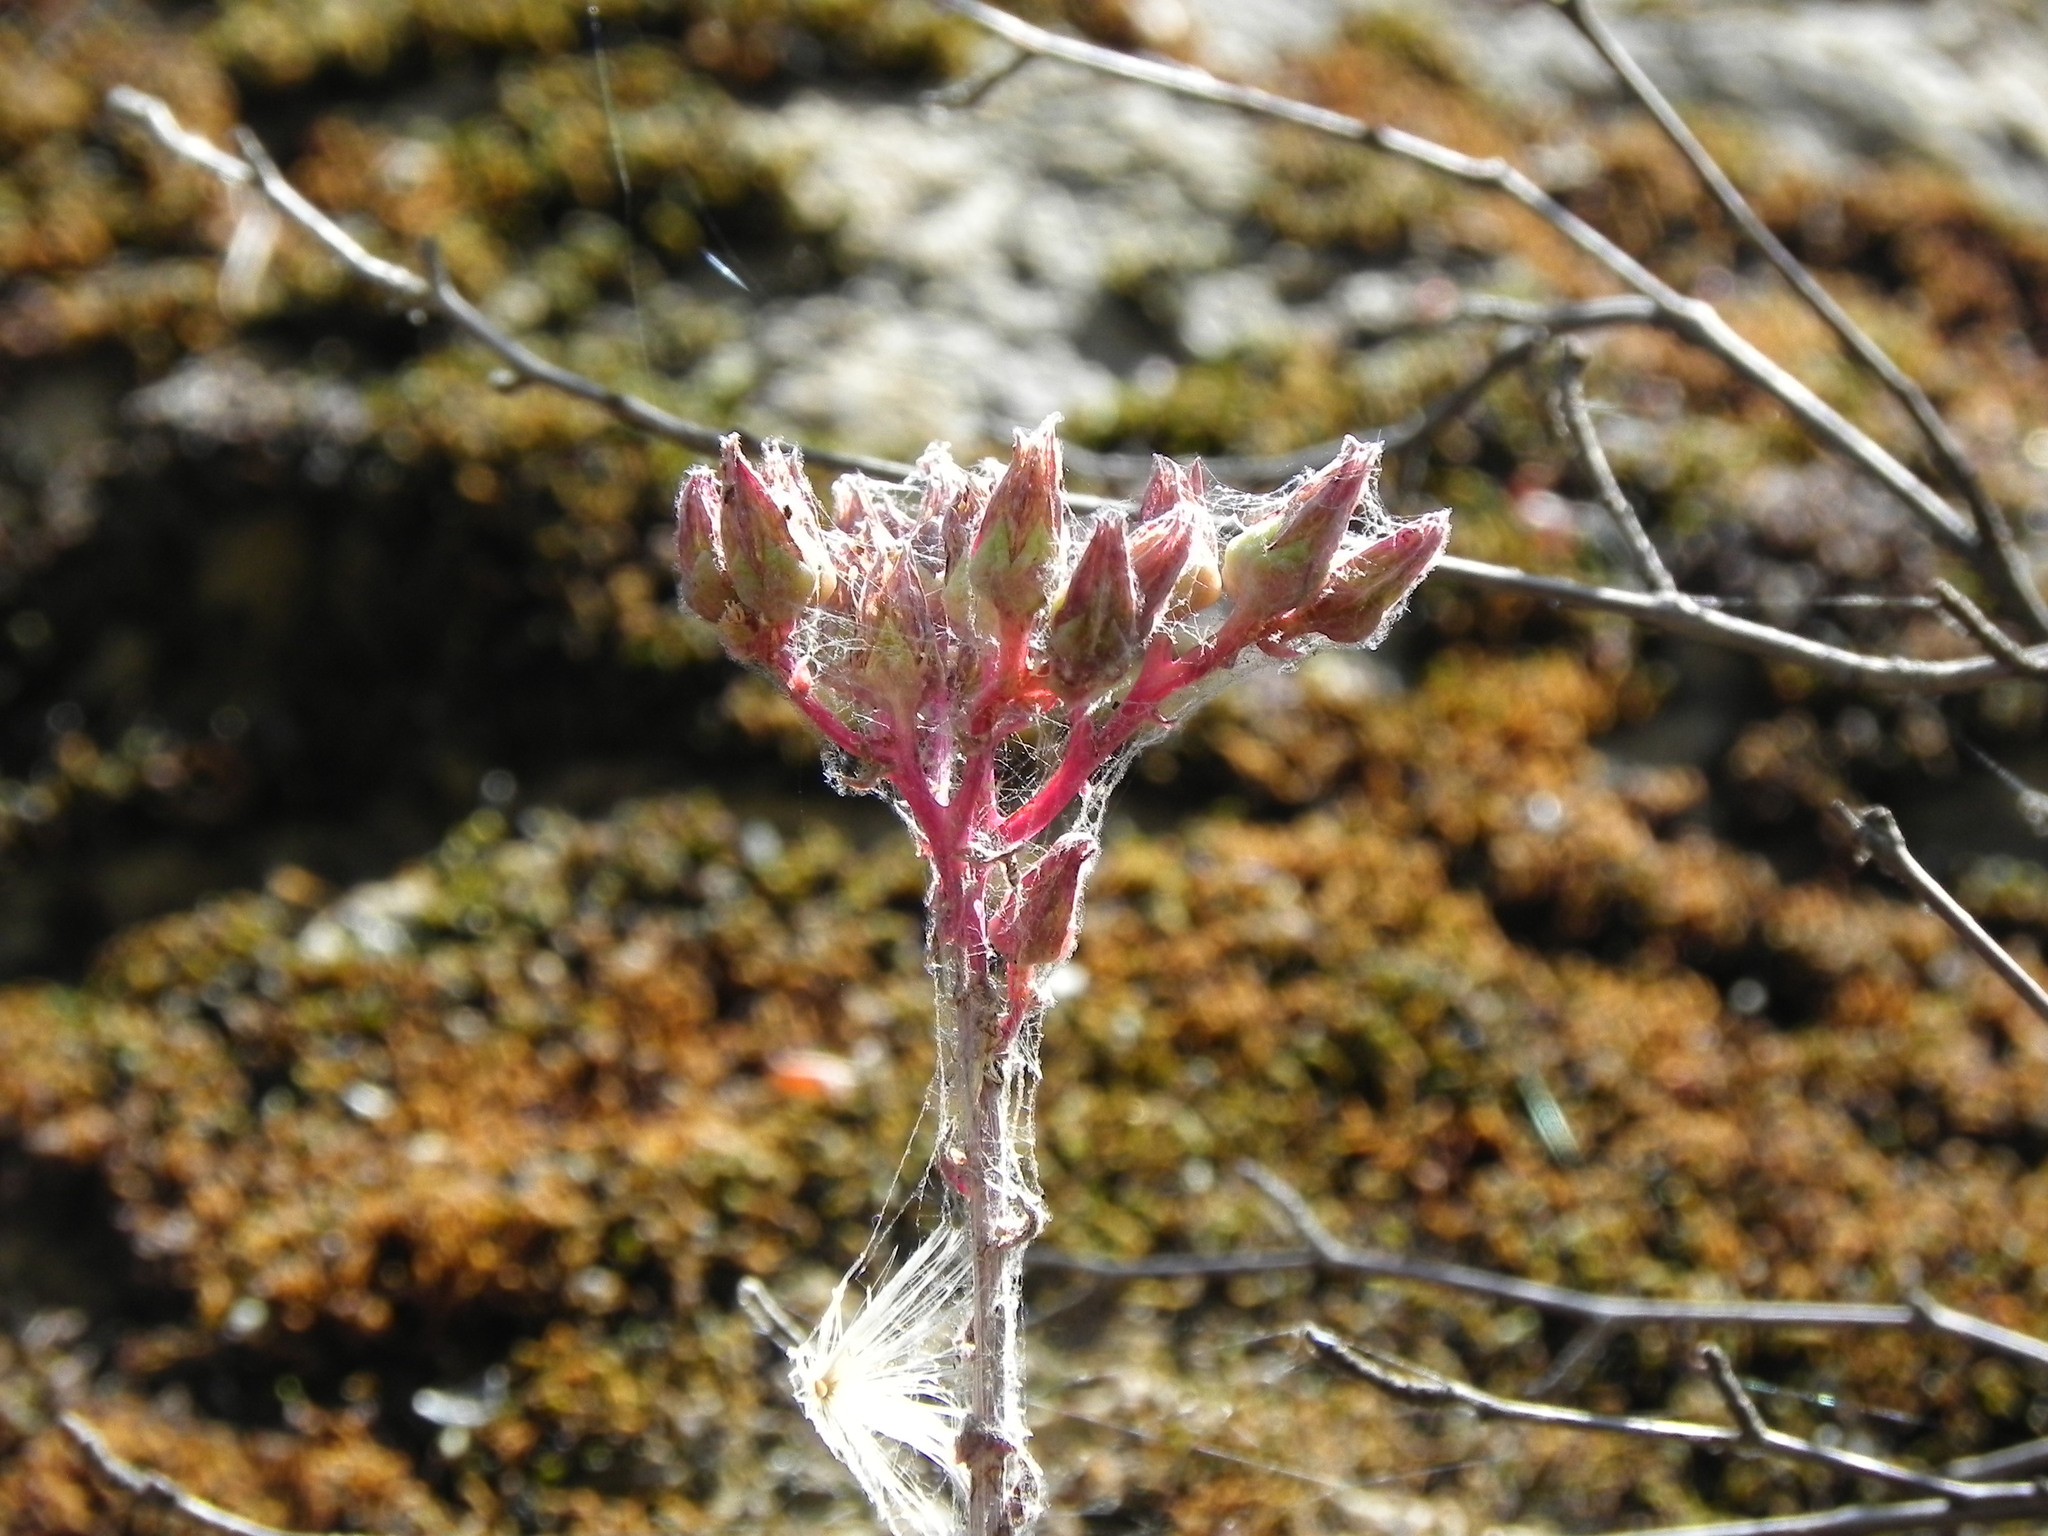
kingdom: Plantae
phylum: Tracheophyta
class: Magnoliopsida
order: Saxifragales
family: Crassulaceae
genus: Dudleya
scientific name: Dudleya lanceolata
